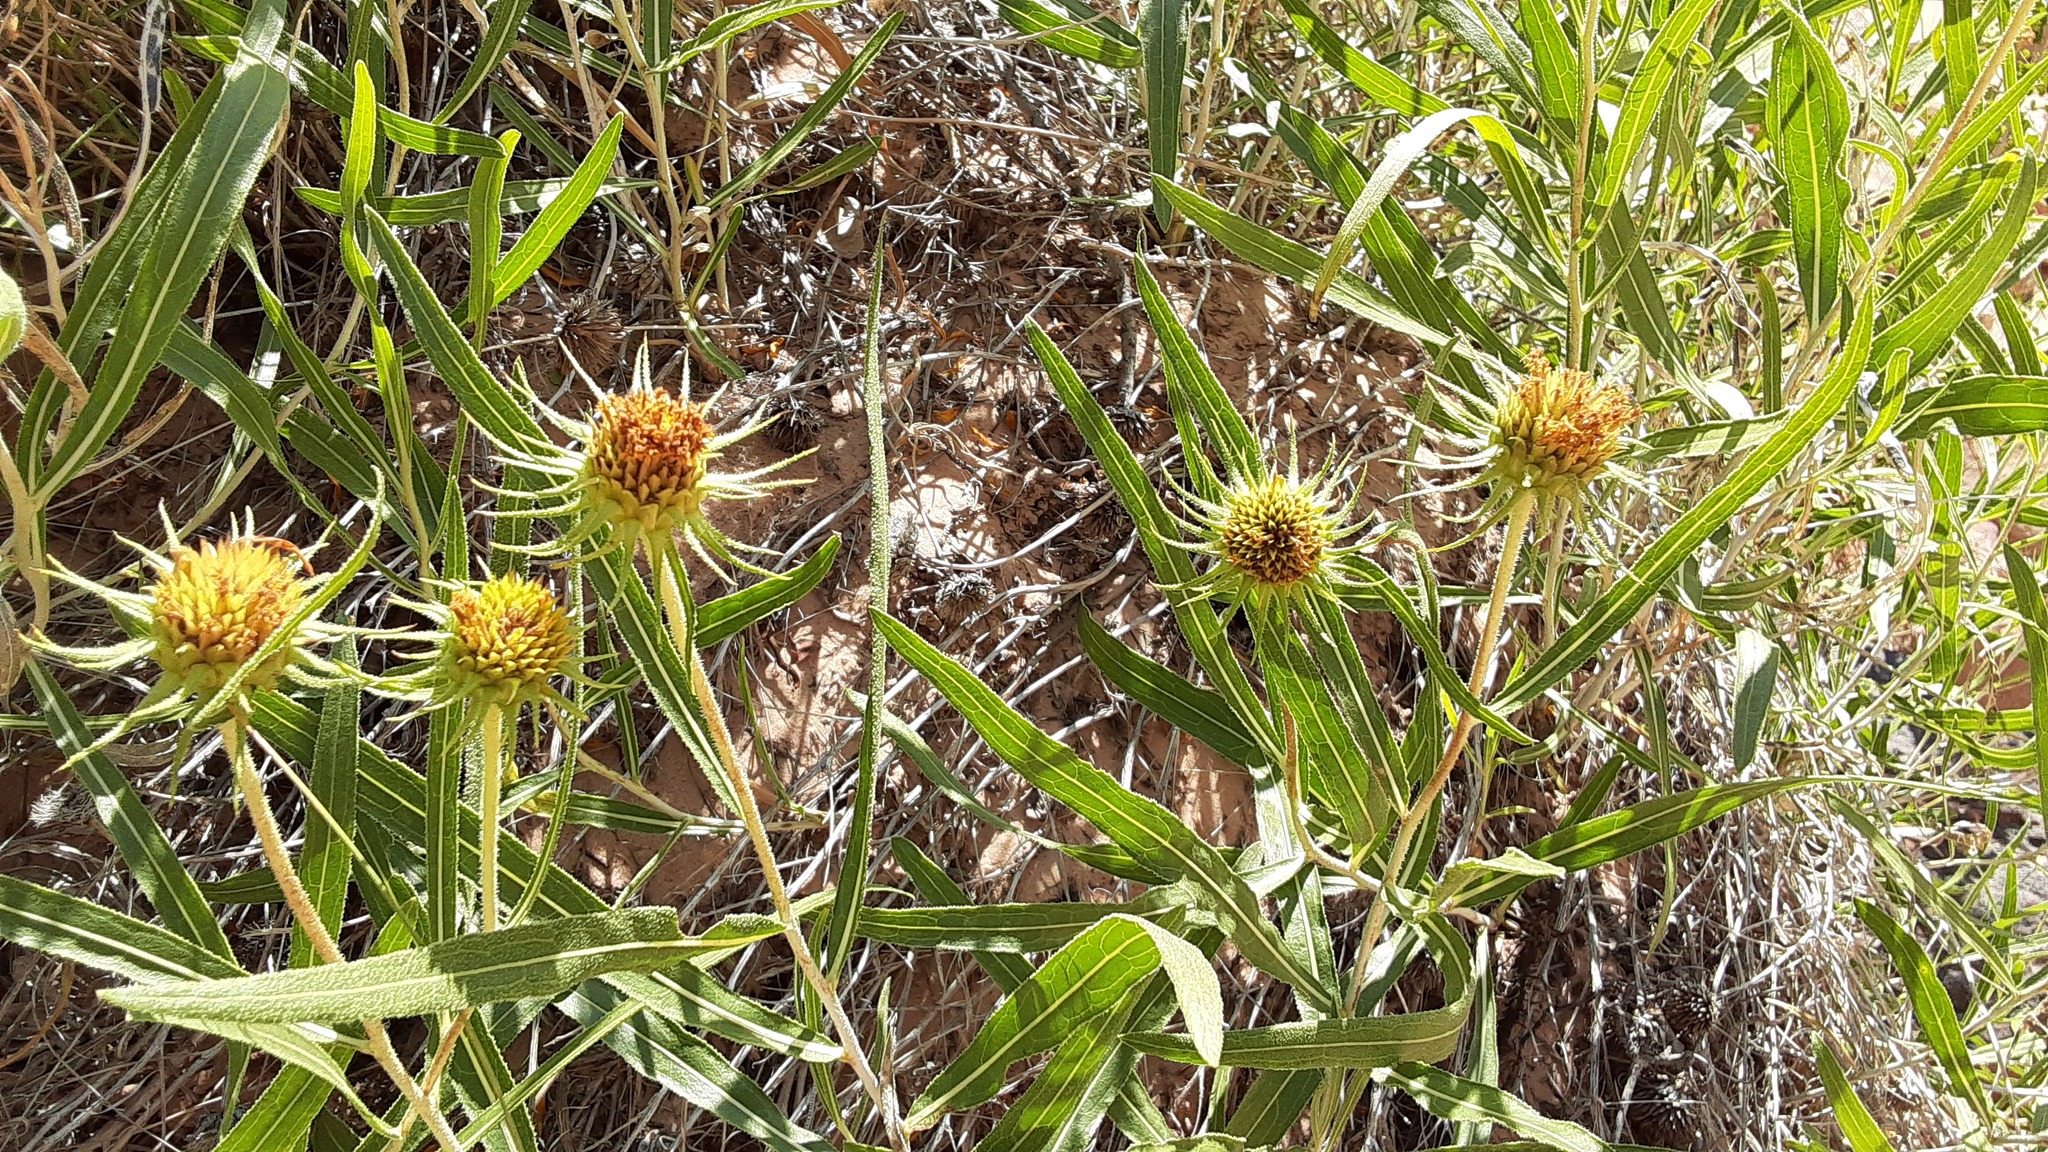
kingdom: Plantae
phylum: Tracheophyta
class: Magnoliopsida
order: Asterales
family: Asteraceae
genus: Scabrethia
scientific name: Scabrethia scabra
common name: Rough mules's-ears
